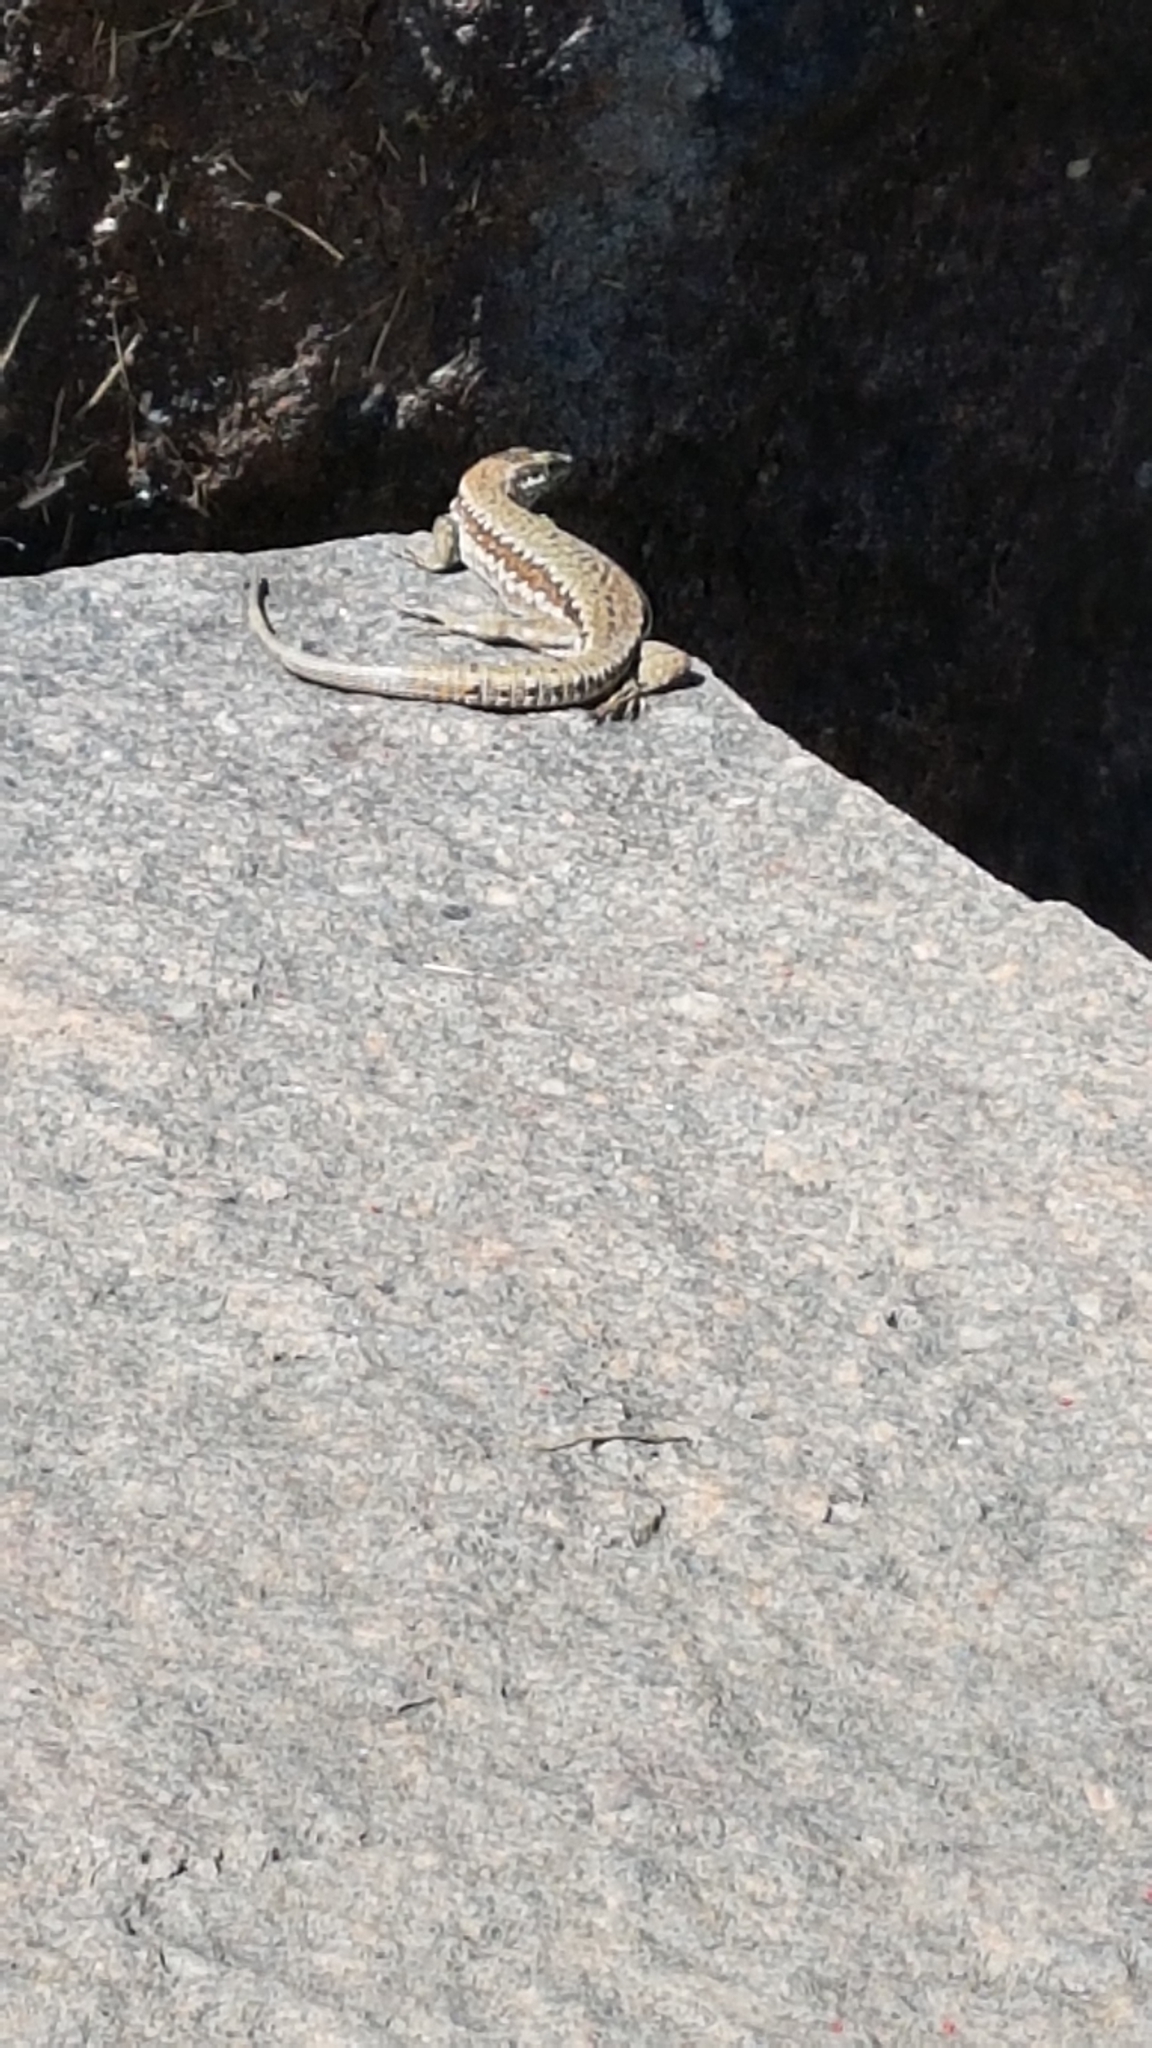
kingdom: Animalia
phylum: Chordata
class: Squamata
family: Lacertidae
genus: Podarcis
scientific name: Podarcis muralis
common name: Common wall lizard
